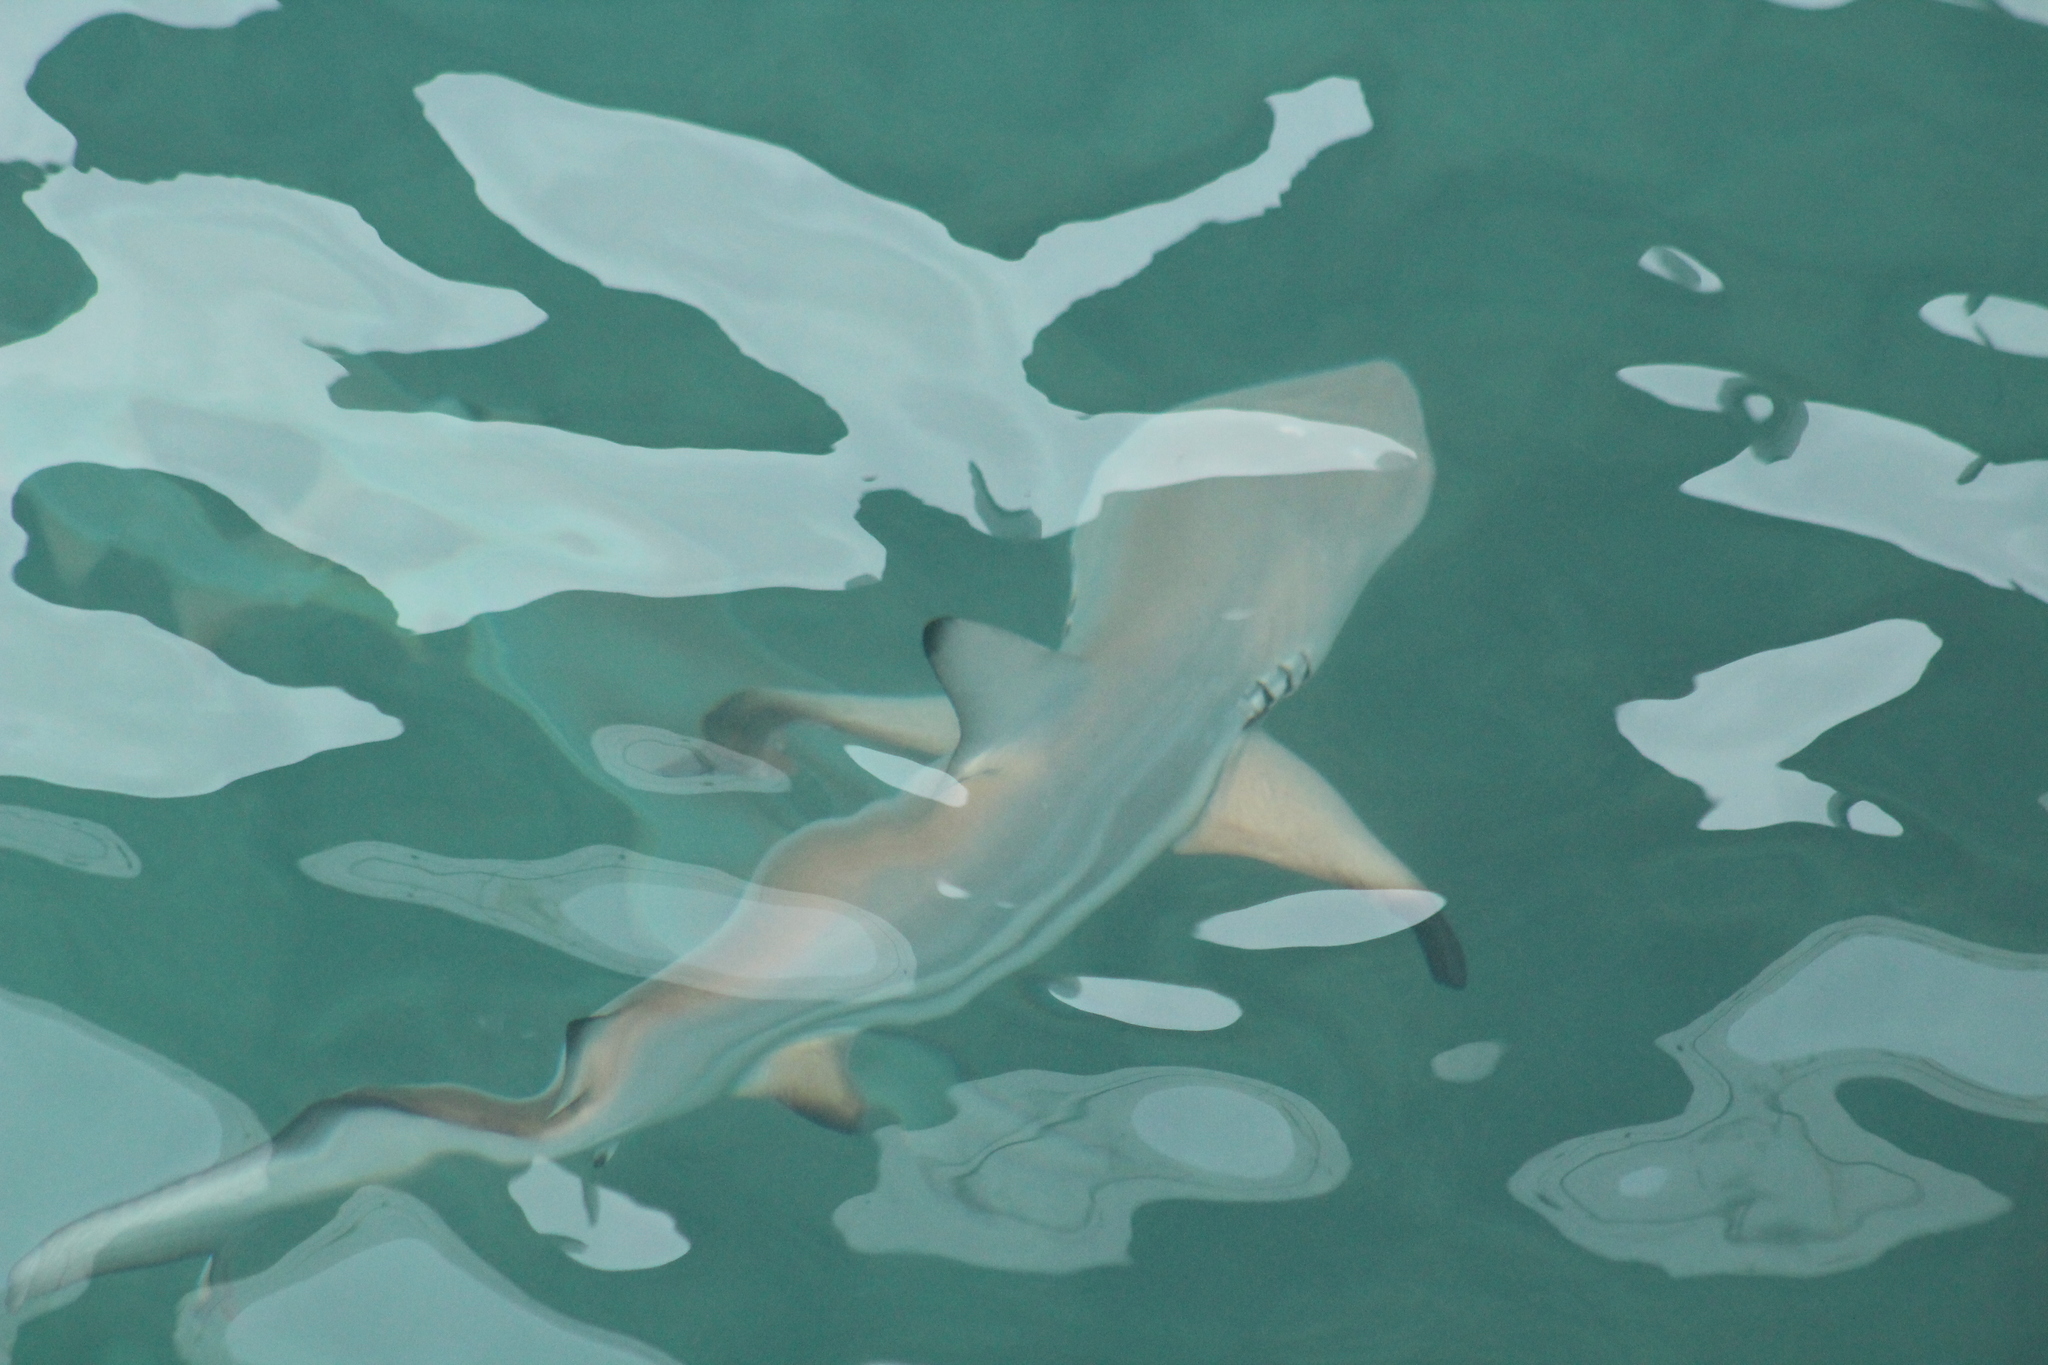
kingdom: Animalia
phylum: Chordata
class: Elasmobranchii
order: Carcharhiniformes
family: Carcharhinidae
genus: Carcharhinus
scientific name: Carcharhinus limbatus
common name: Blacktip shark
